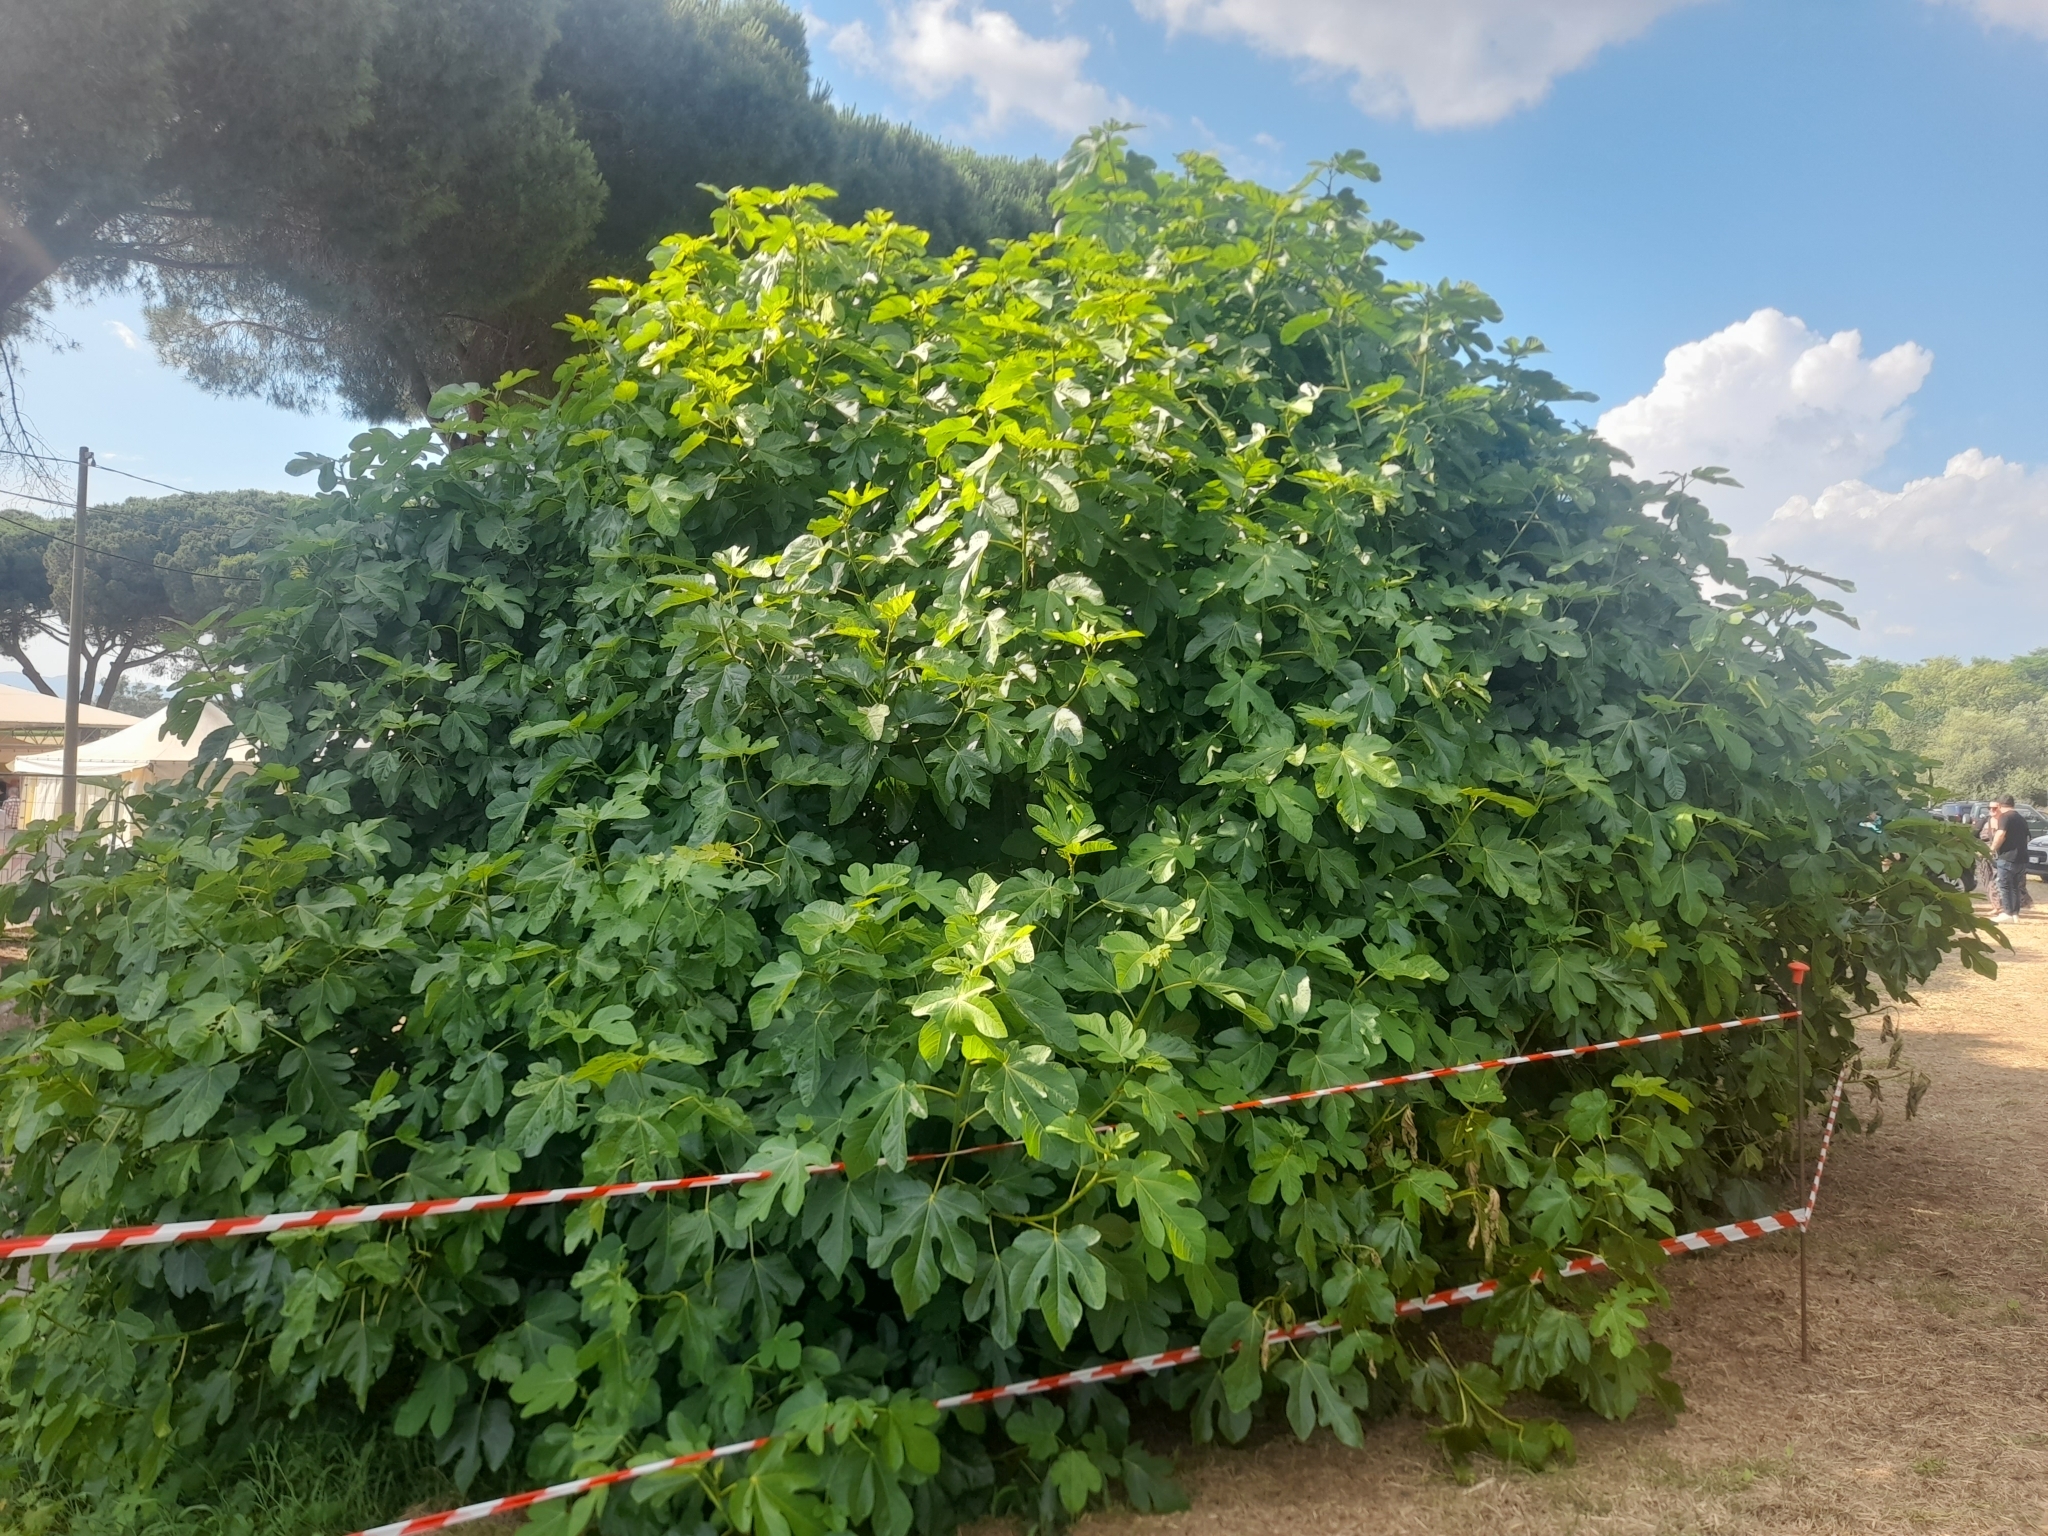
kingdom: Plantae
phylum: Tracheophyta
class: Magnoliopsida
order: Rosales
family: Moraceae
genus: Ficus
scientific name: Ficus carica
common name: Fig
